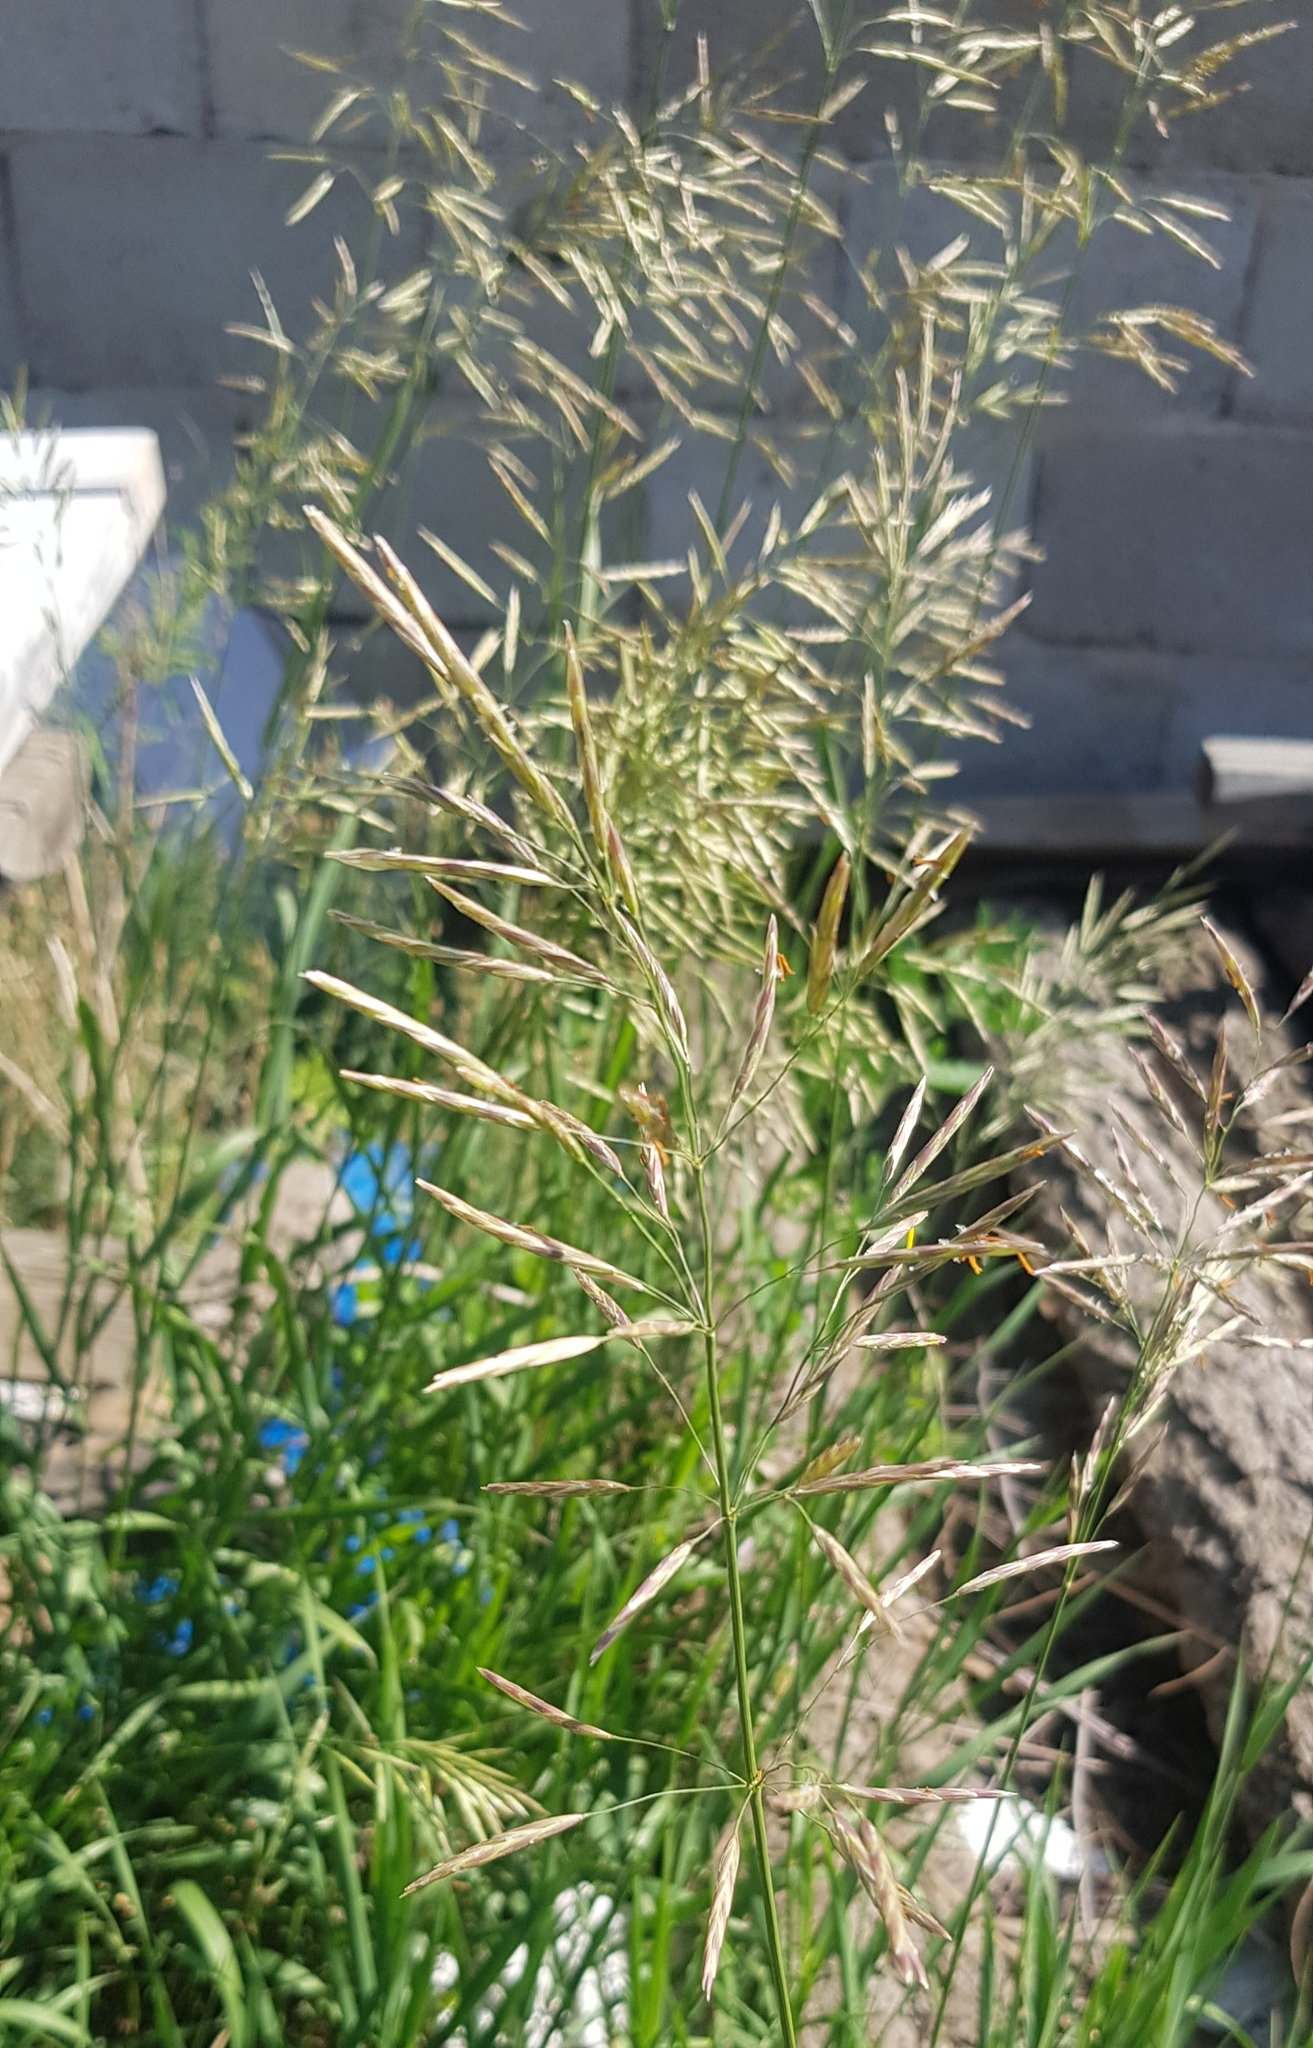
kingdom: Plantae
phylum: Tracheophyta
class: Liliopsida
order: Poales
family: Poaceae
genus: Bromus
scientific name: Bromus inermis
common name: Smooth brome
